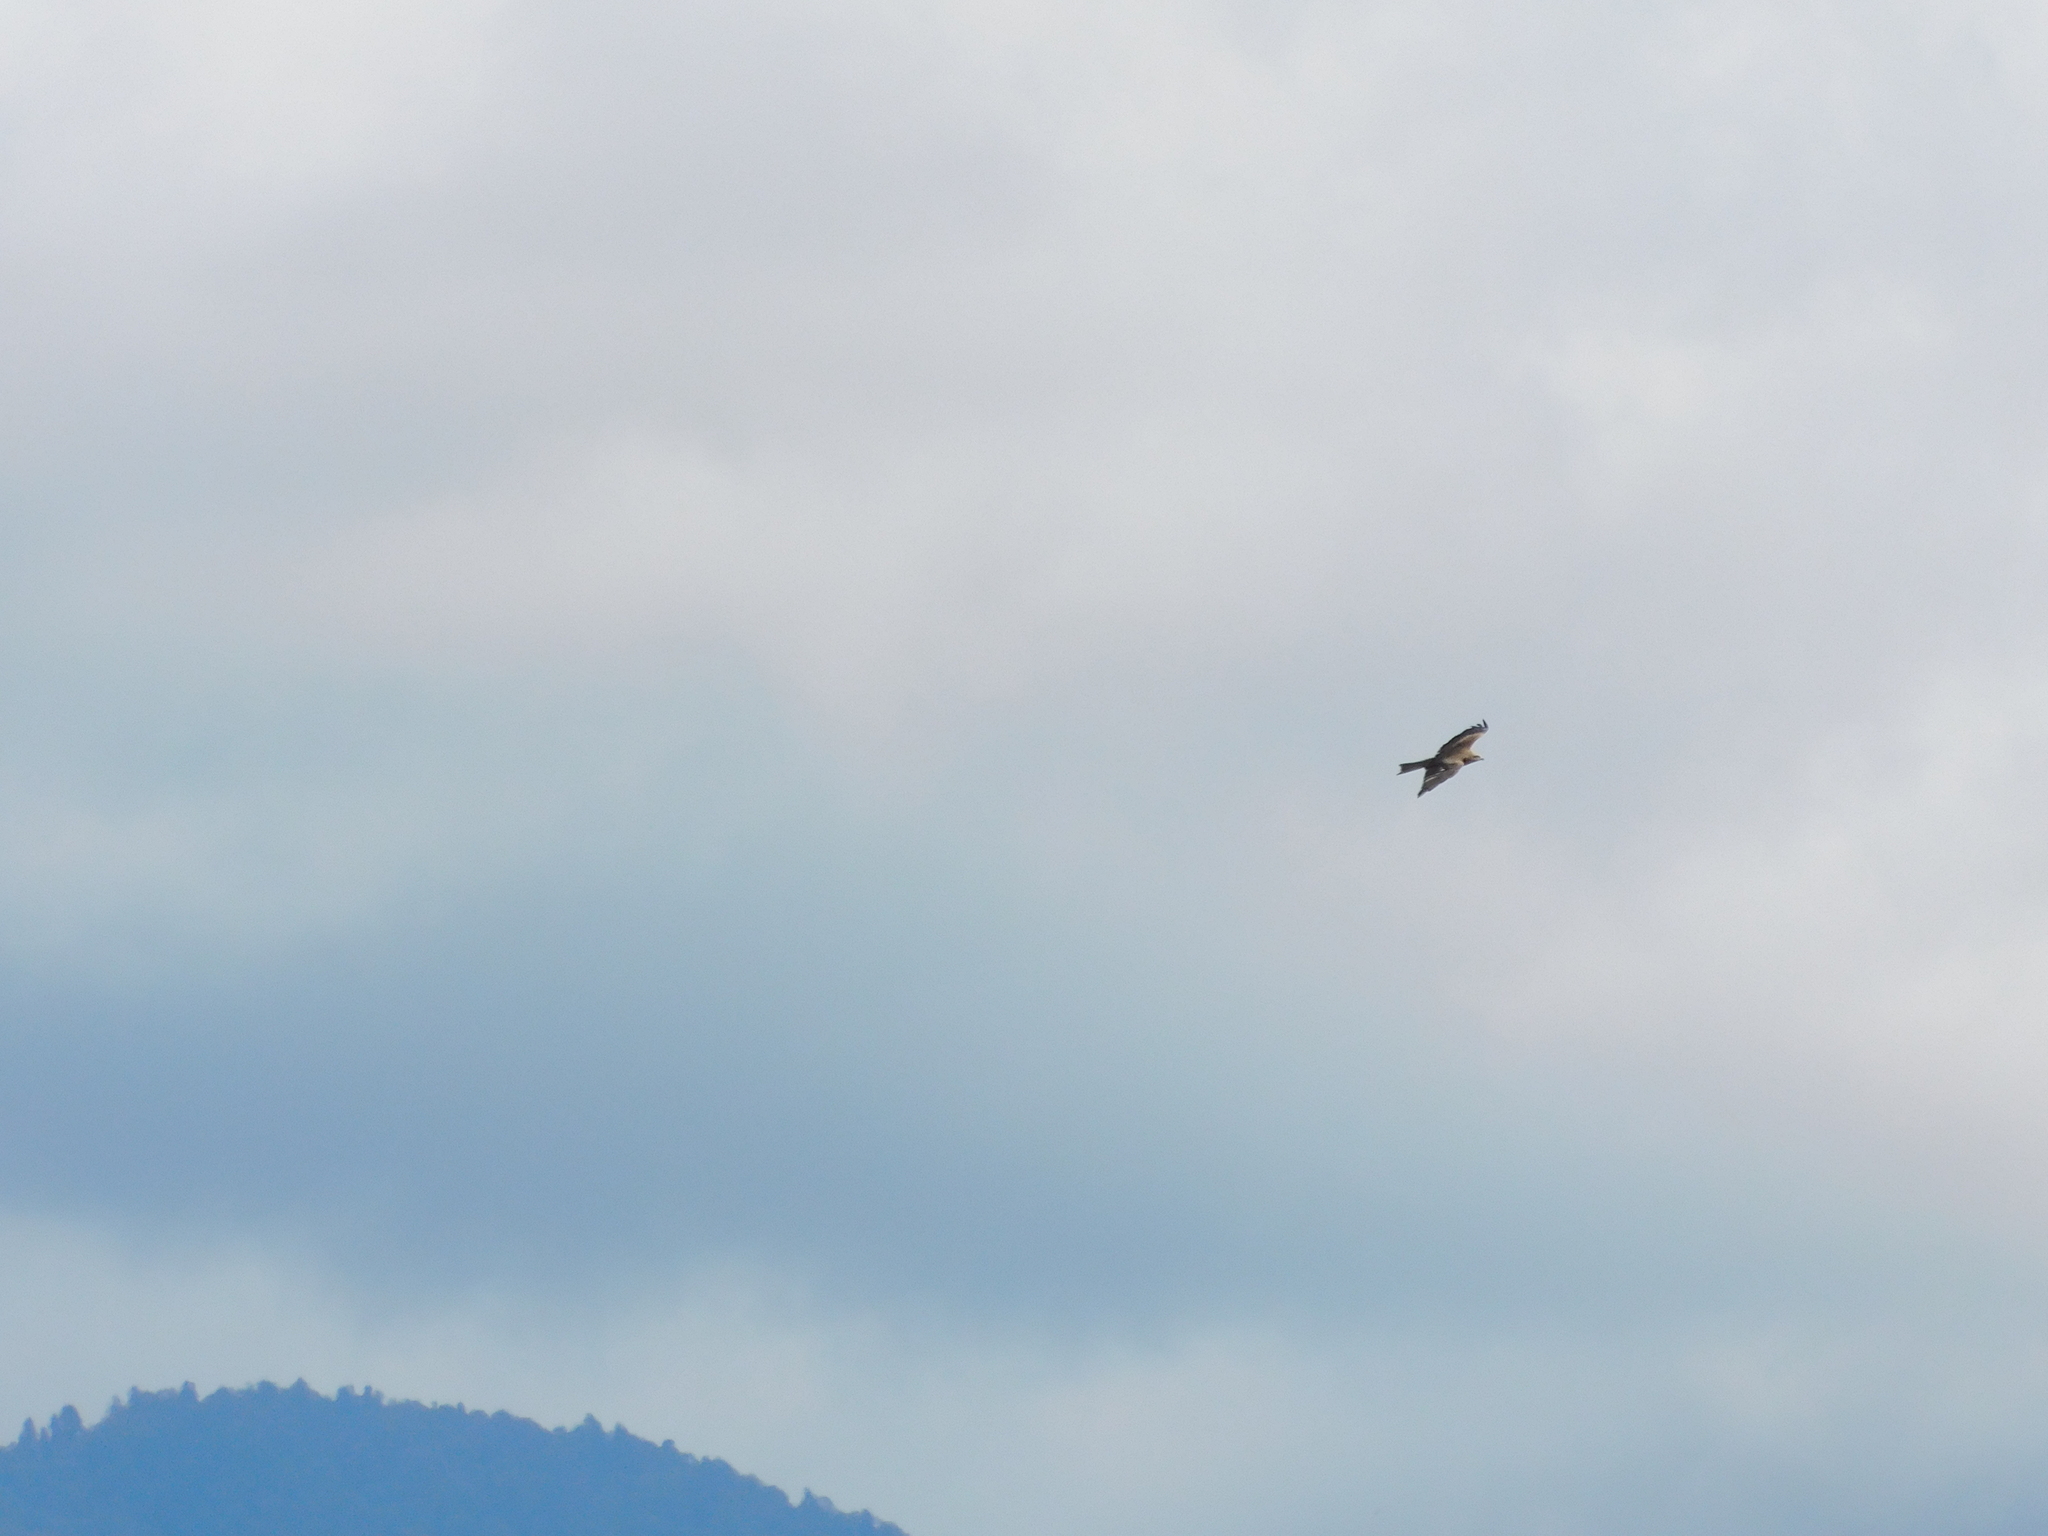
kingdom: Animalia
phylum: Chordata
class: Aves
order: Accipitriformes
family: Accipitridae
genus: Milvus
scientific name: Milvus migrans
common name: Black kite
